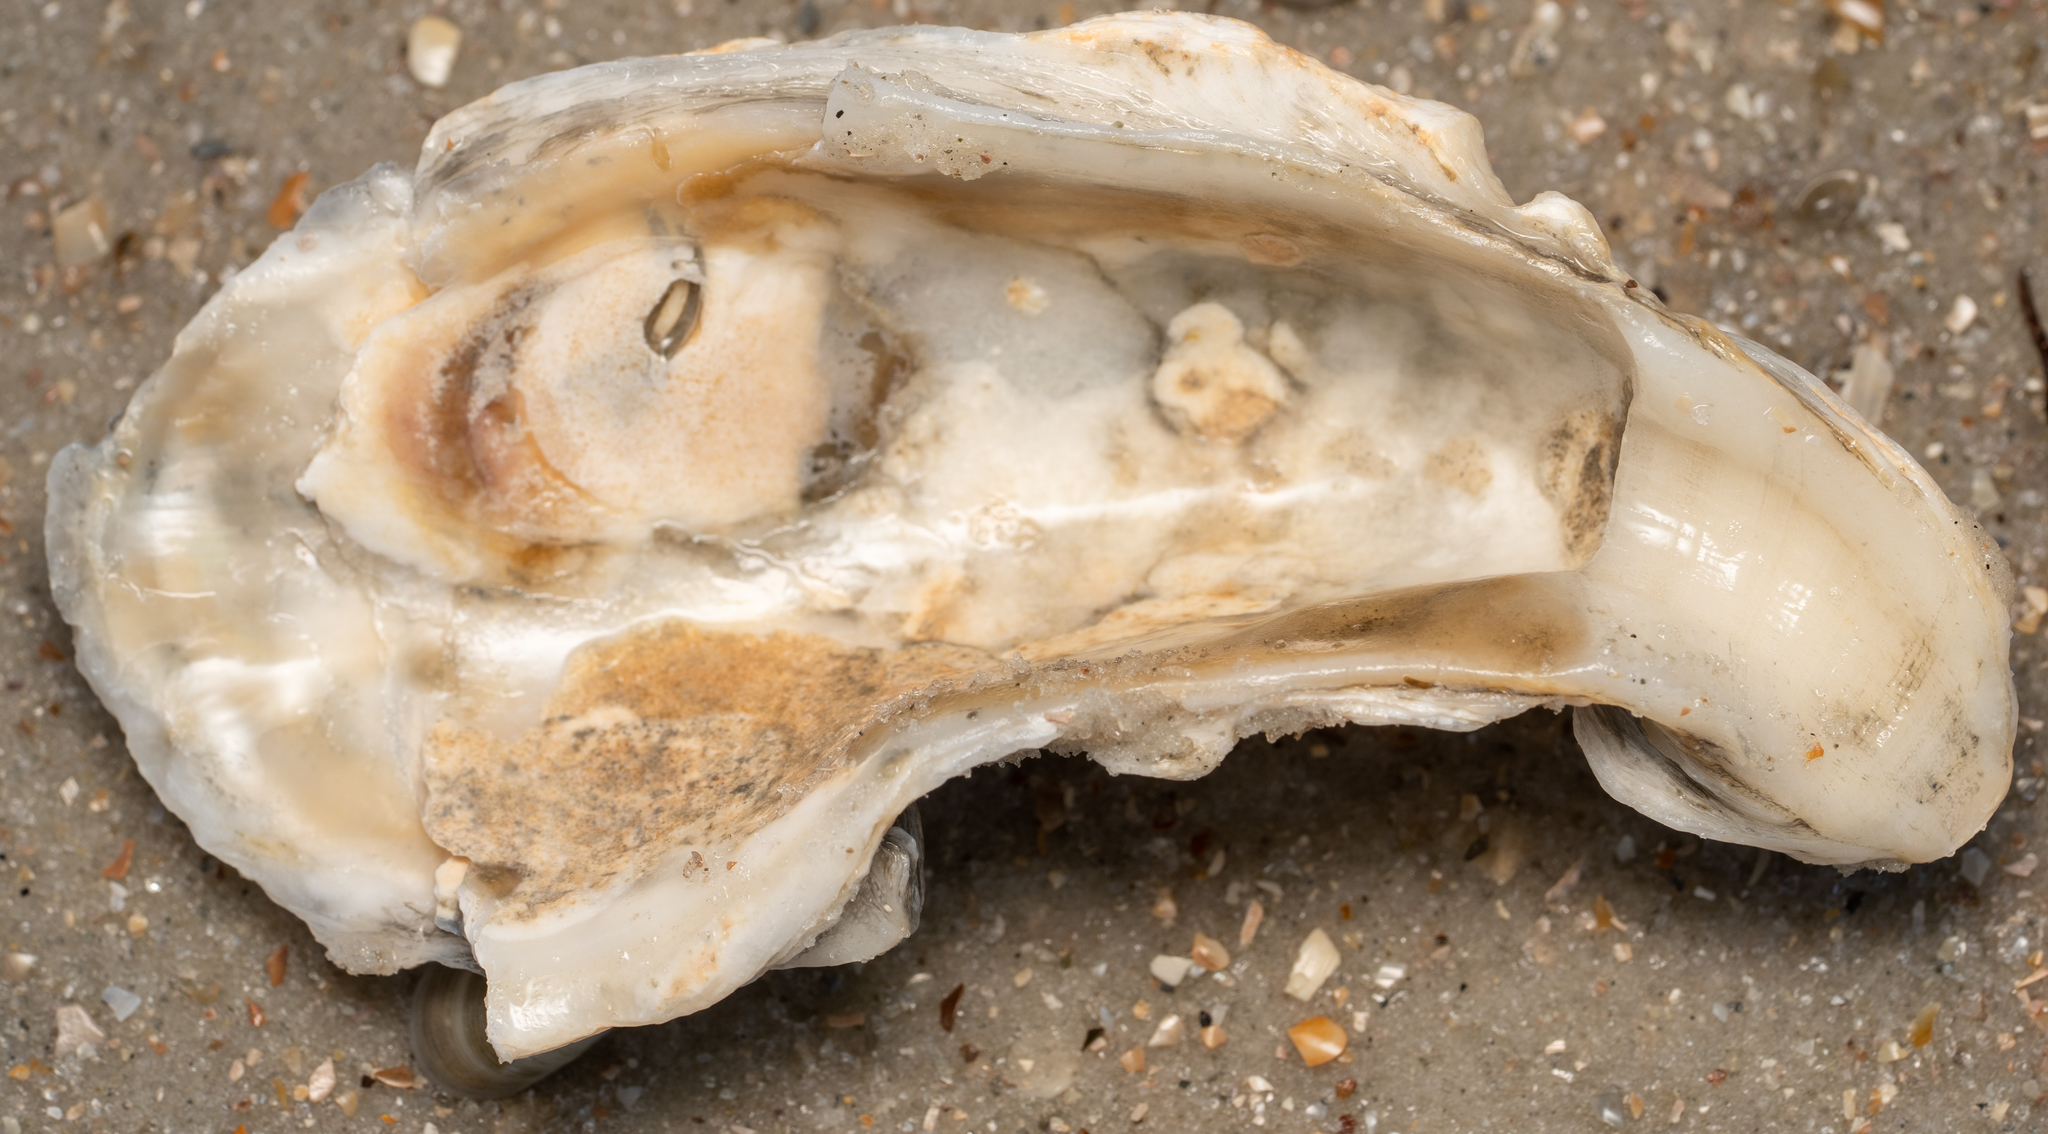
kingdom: Animalia
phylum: Mollusca
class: Bivalvia
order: Ostreida
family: Ostreidae
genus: Crassostrea
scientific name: Crassostrea virginica
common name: American oyster
